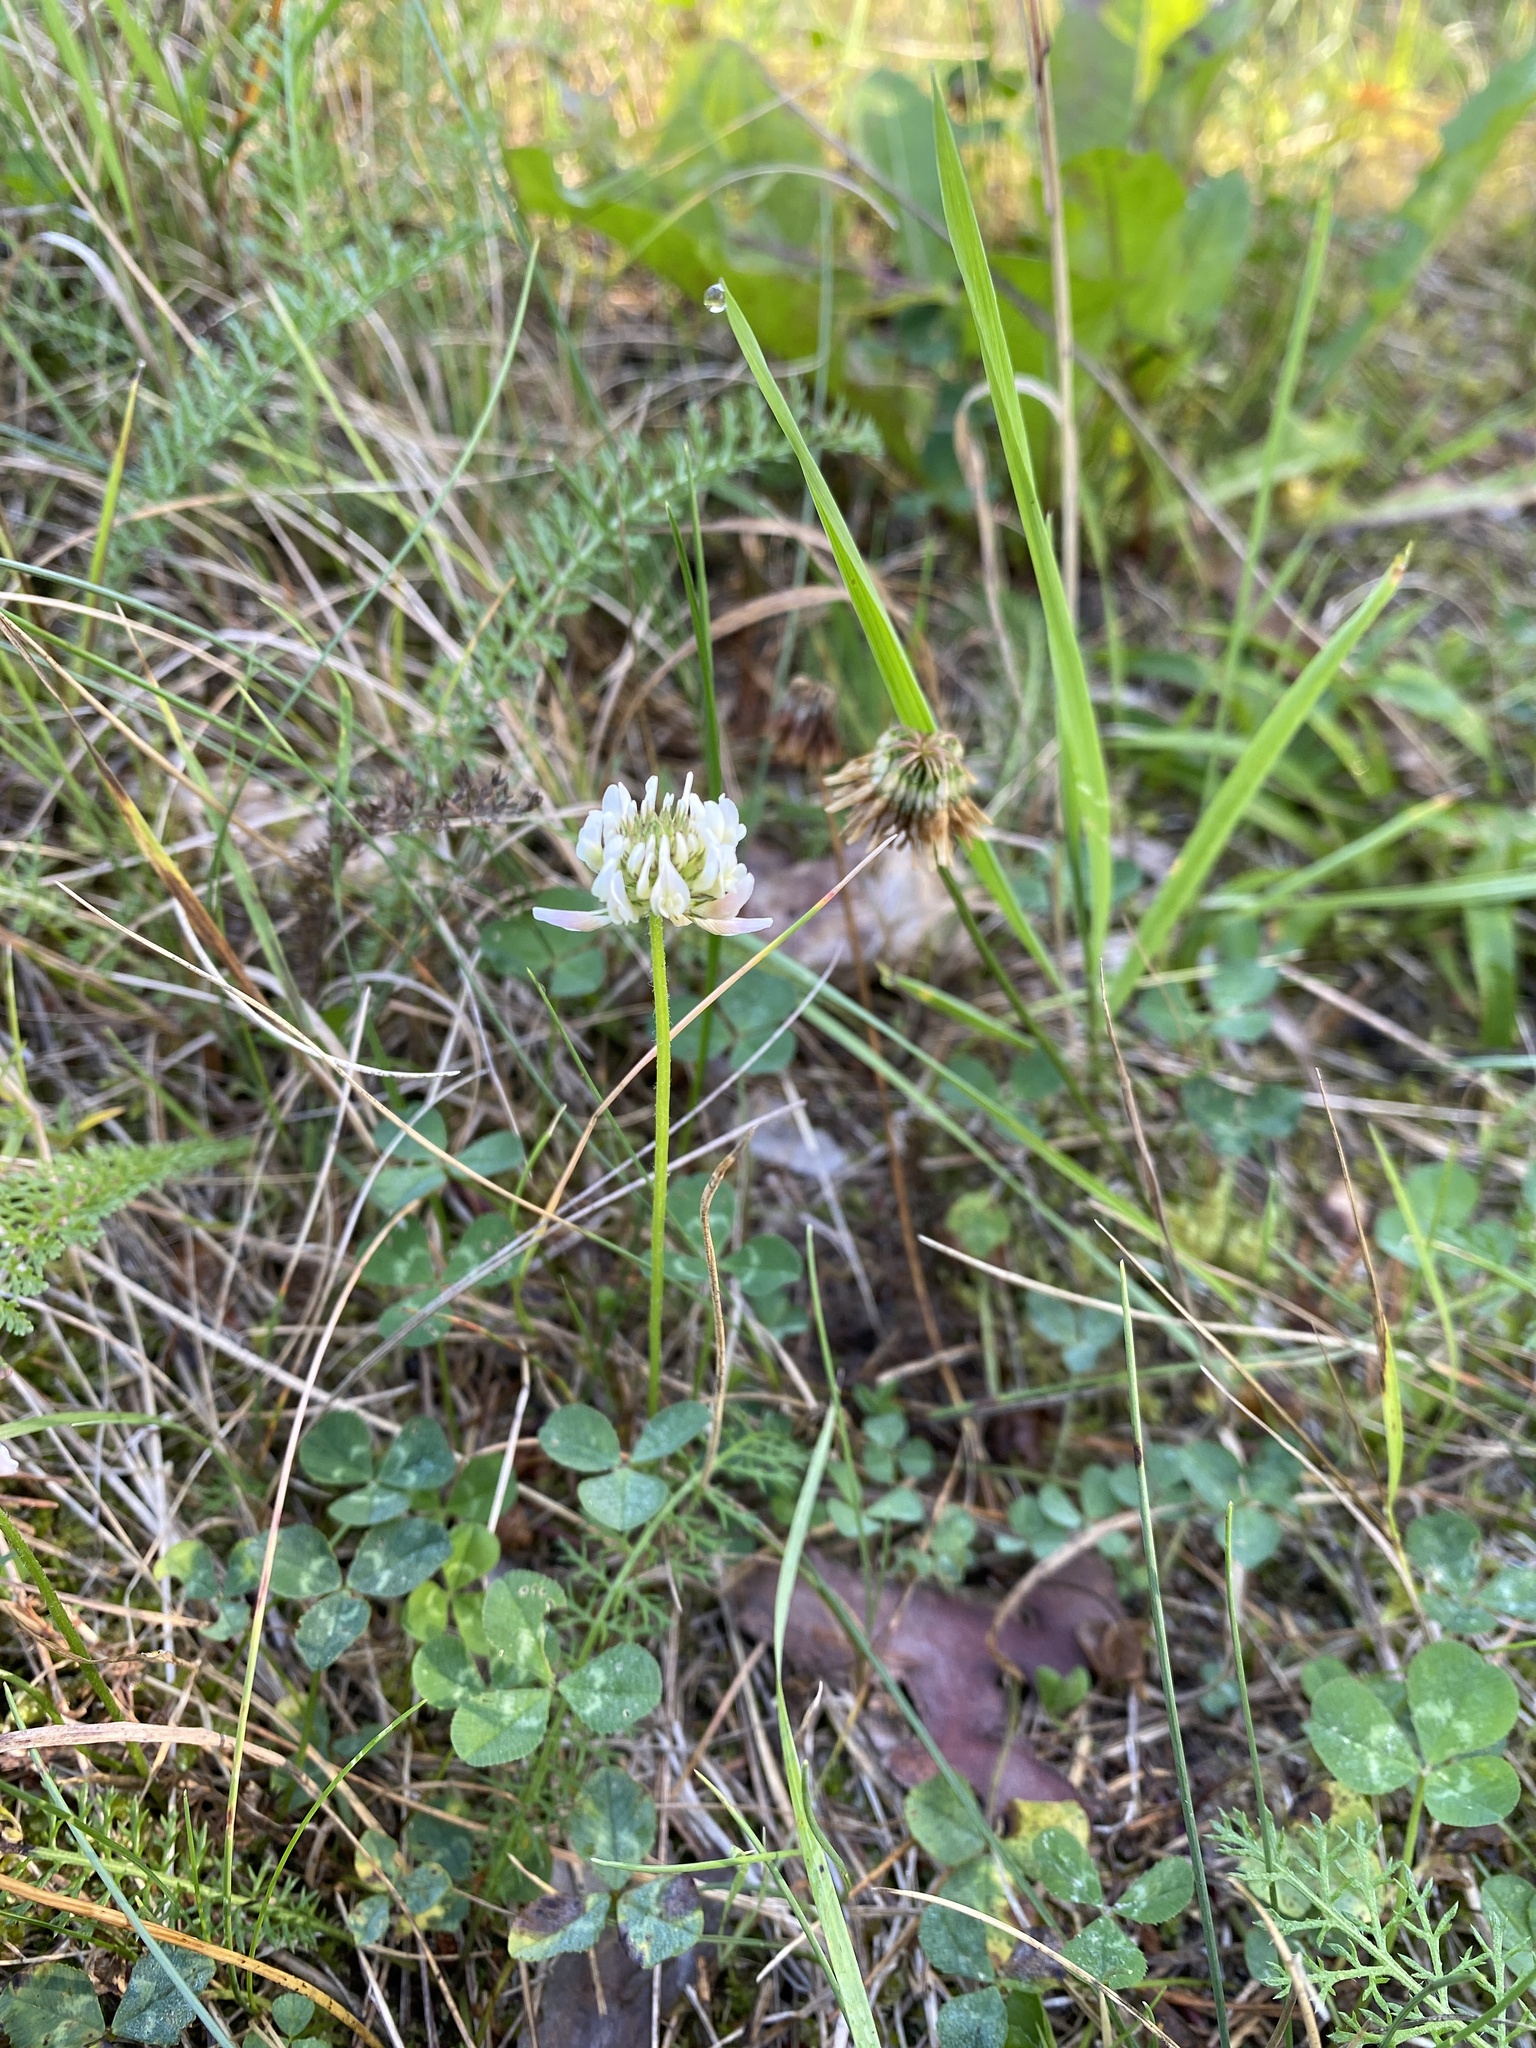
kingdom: Plantae
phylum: Tracheophyta
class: Magnoliopsida
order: Fabales
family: Fabaceae
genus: Trifolium
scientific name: Trifolium repens
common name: White clover
